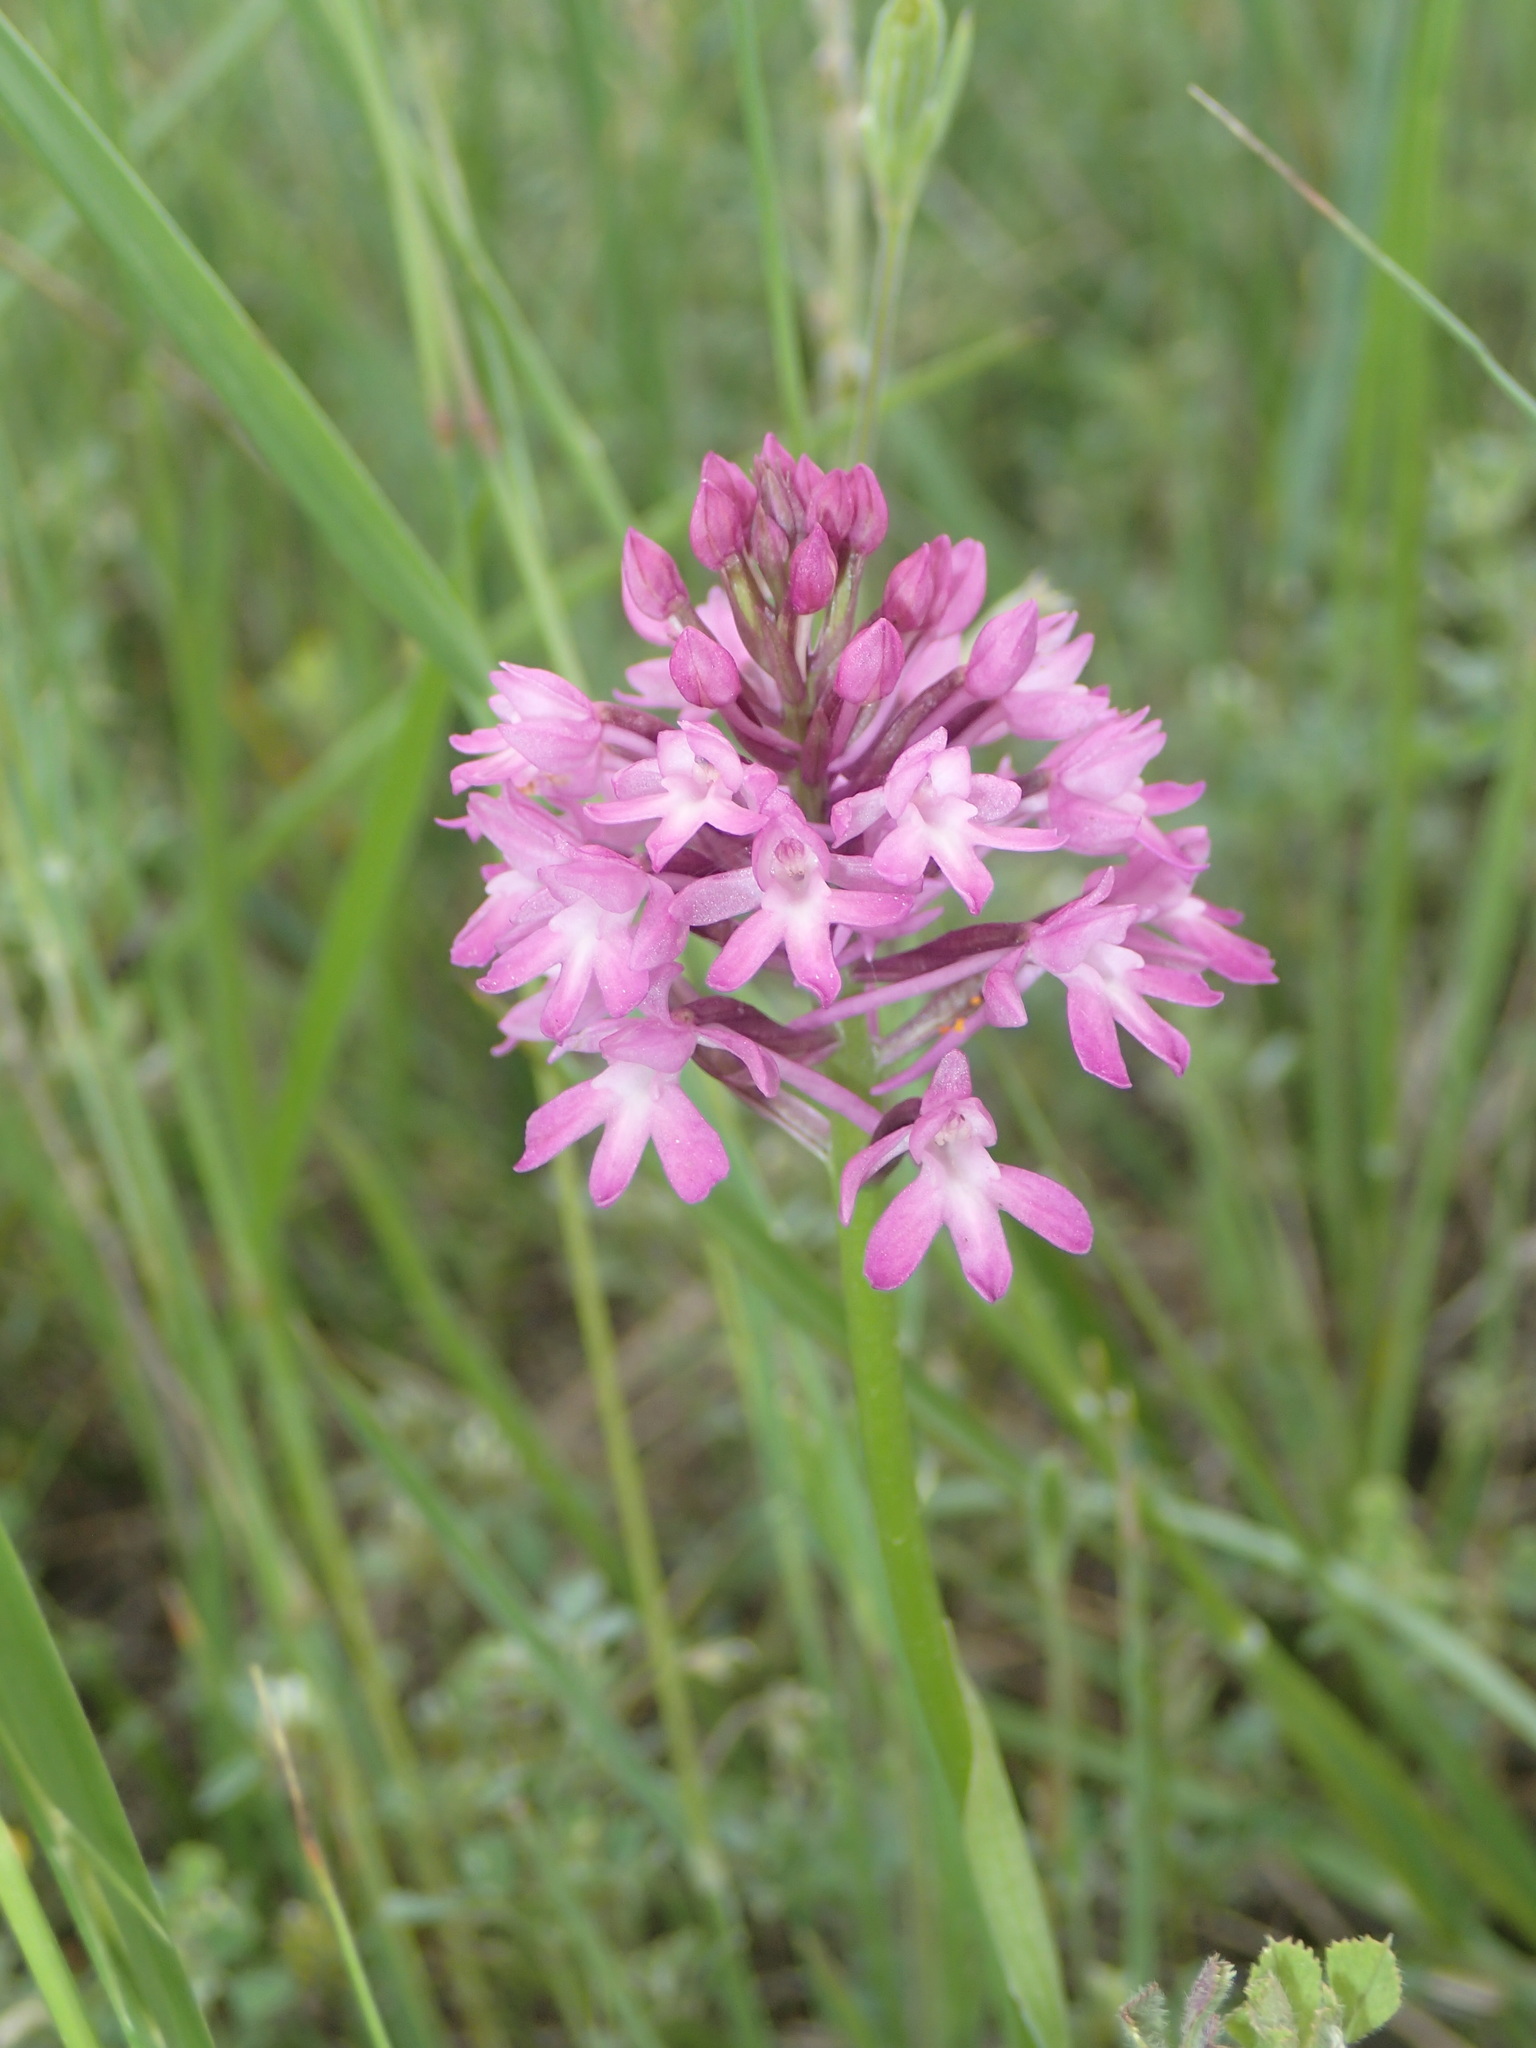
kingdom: Plantae
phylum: Tracheophyta
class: Liliopsida
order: Asparagales
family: Orchidaceae
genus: Anacamptis
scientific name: Anacamptis pyramidalis
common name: Pyramidal orchid
